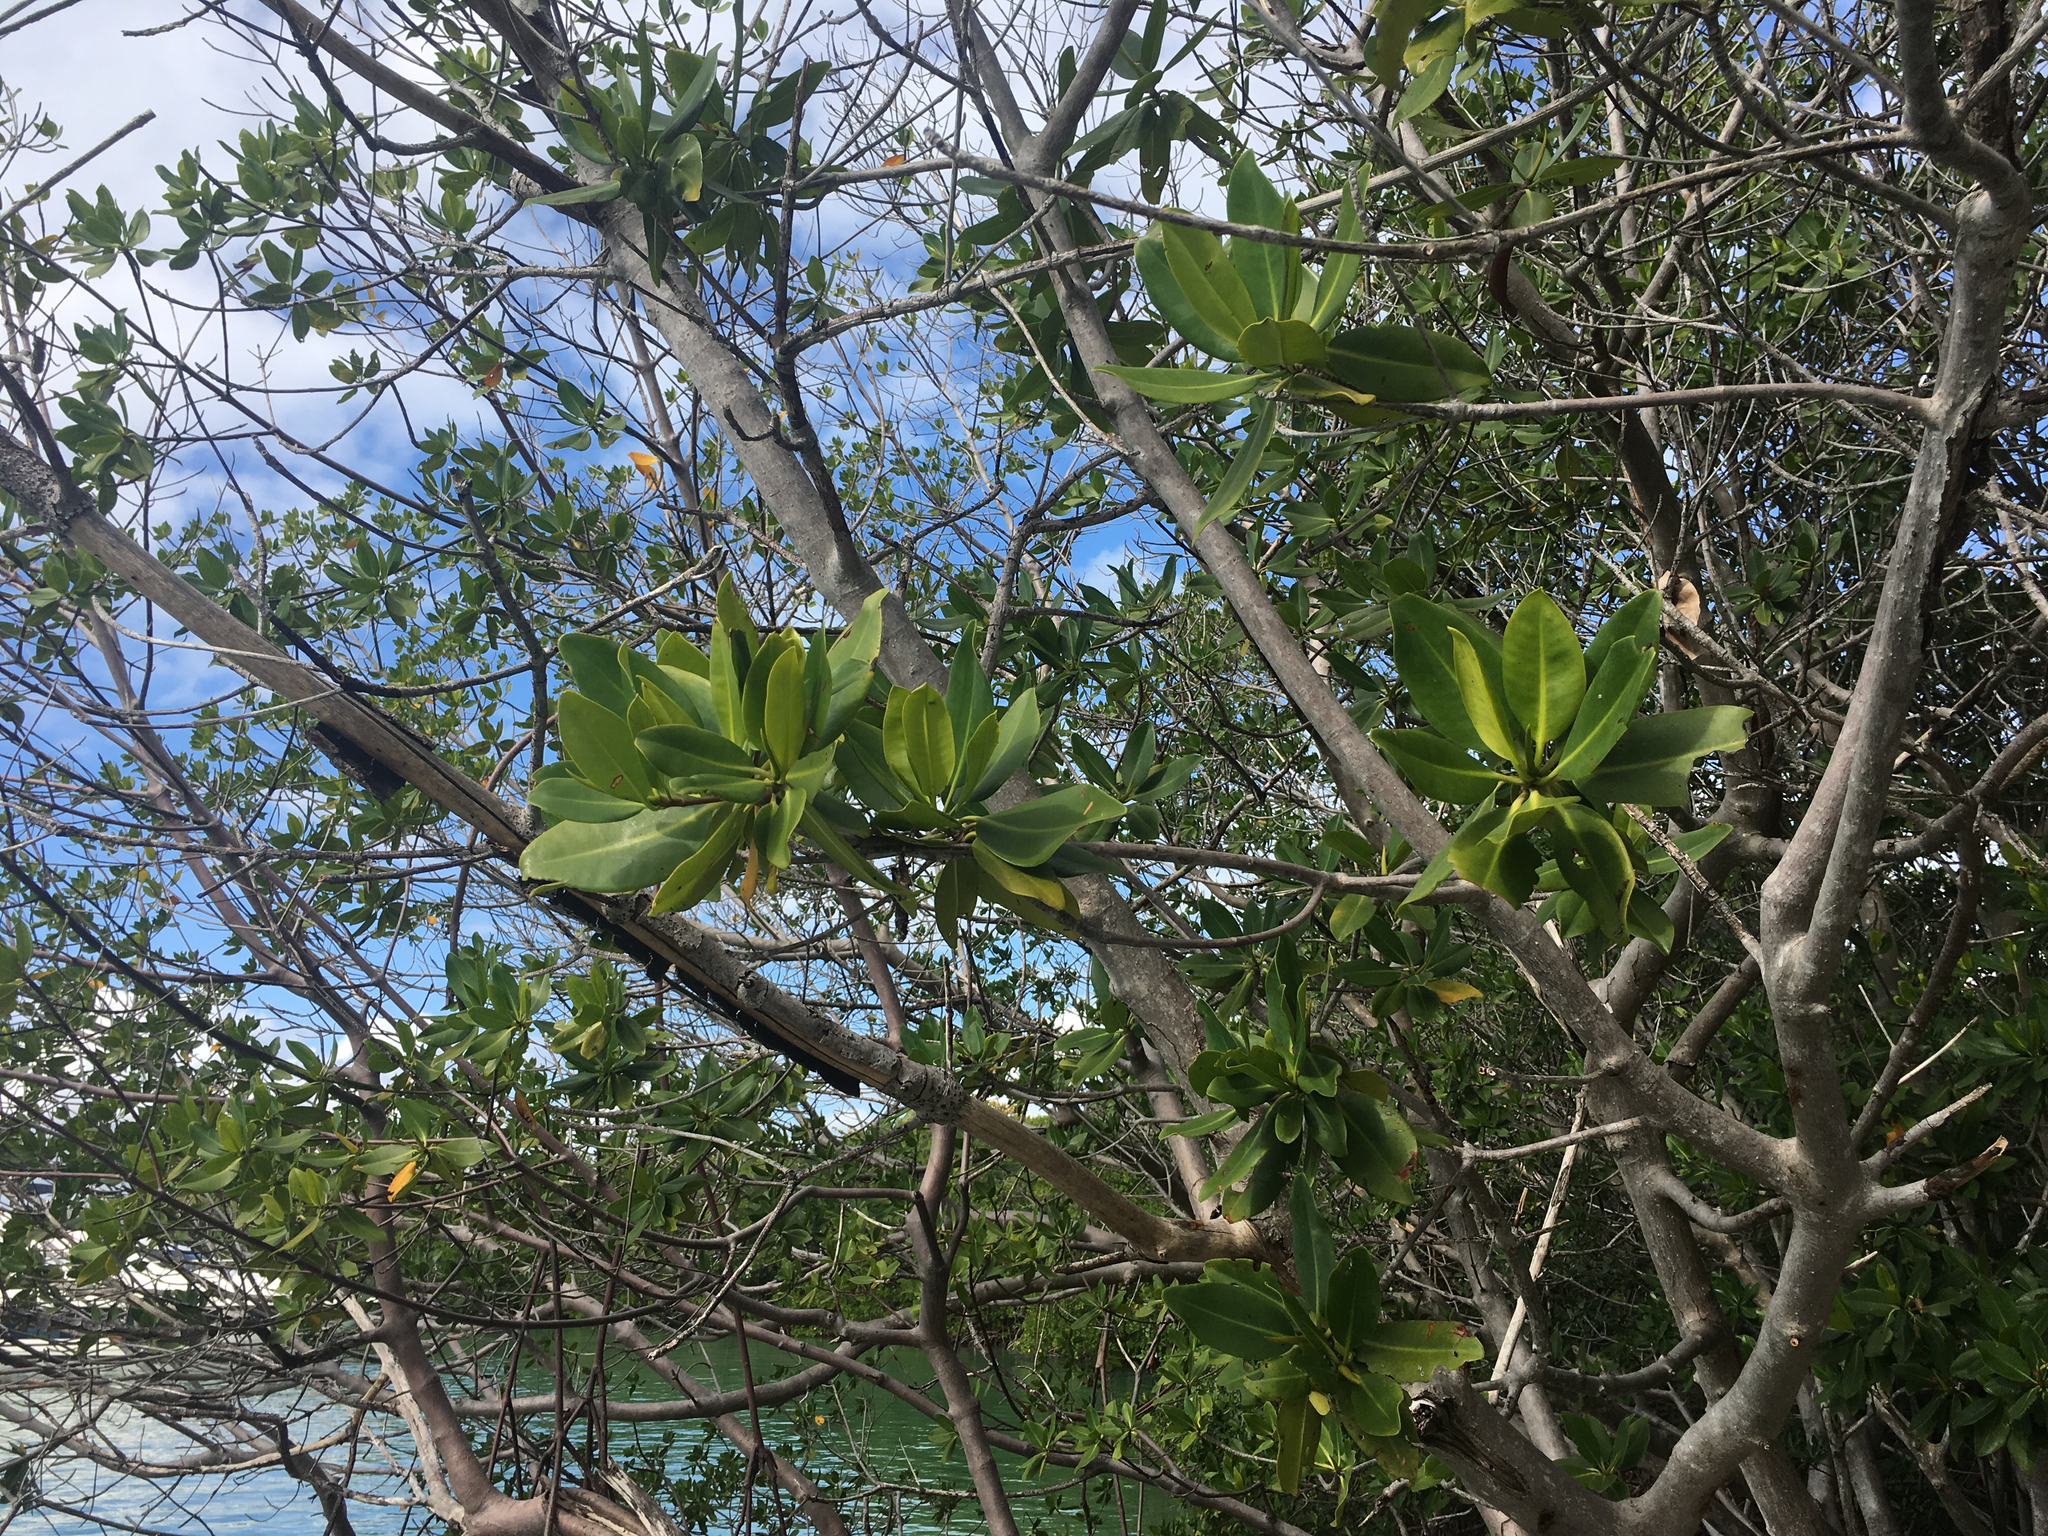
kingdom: Plantae
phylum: Tracheophyta
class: Magnoliopsida
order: Malpighiales
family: Rhizophoraceae
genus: Rhizophora
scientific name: Rhizophora mangle
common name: Red mangrove
